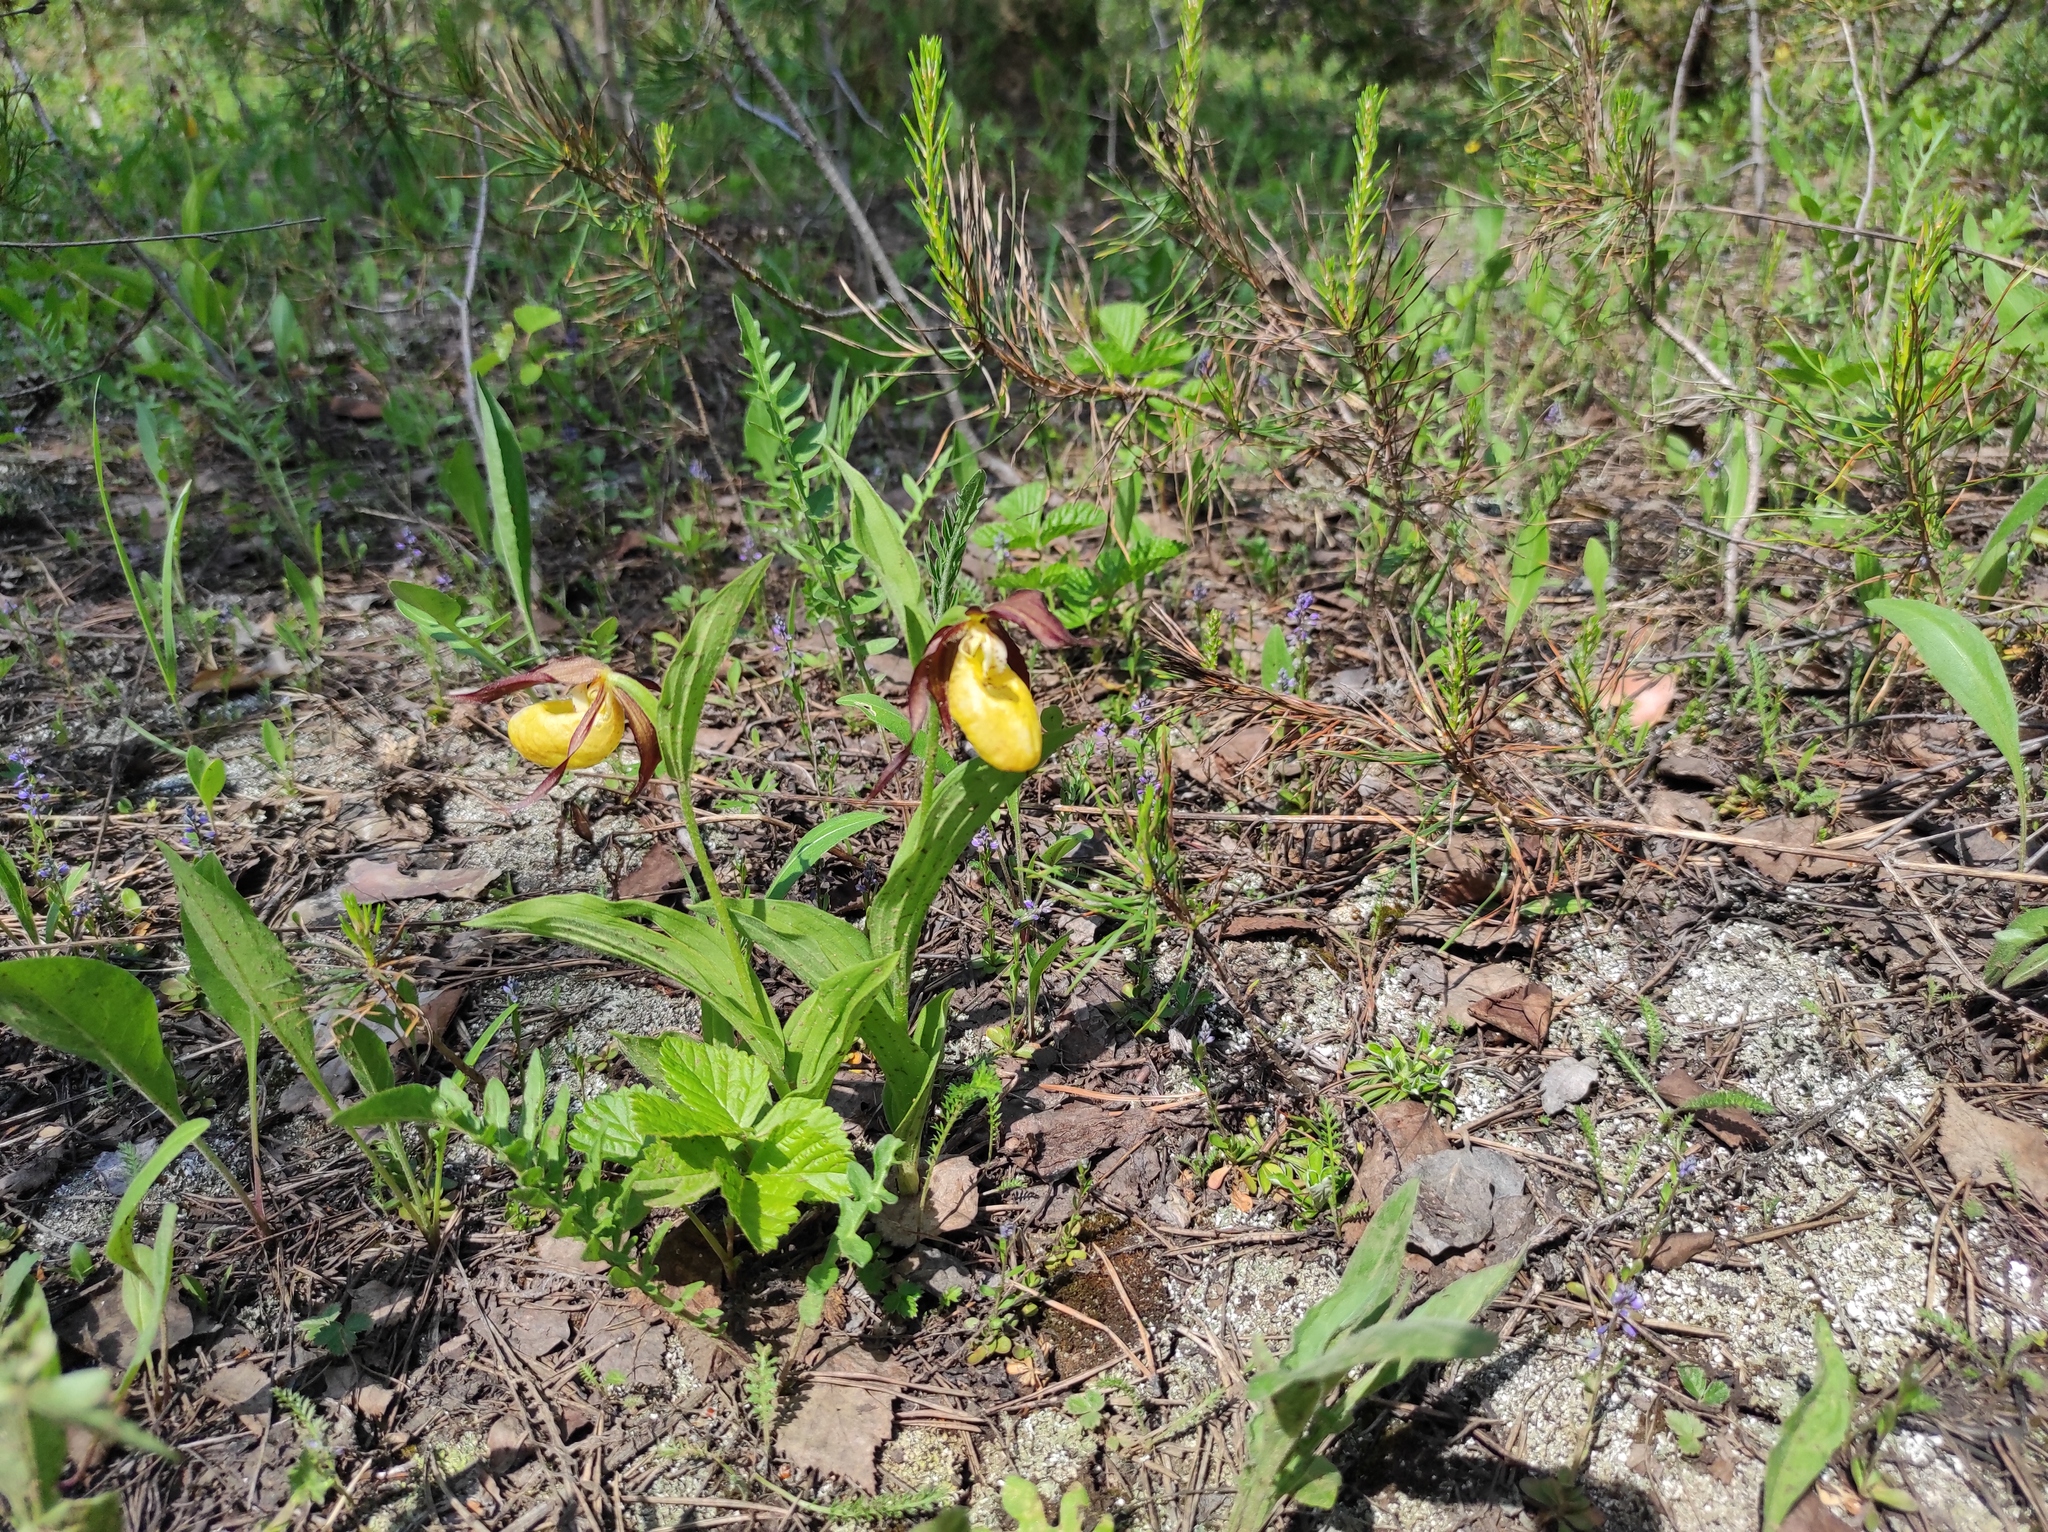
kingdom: Plantae
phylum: Tracheophyta
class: Liliopsida
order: Asparagales
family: Orchidaceae
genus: Cypripedium
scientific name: Cypripedium calceolus
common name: Lady's-slipper
